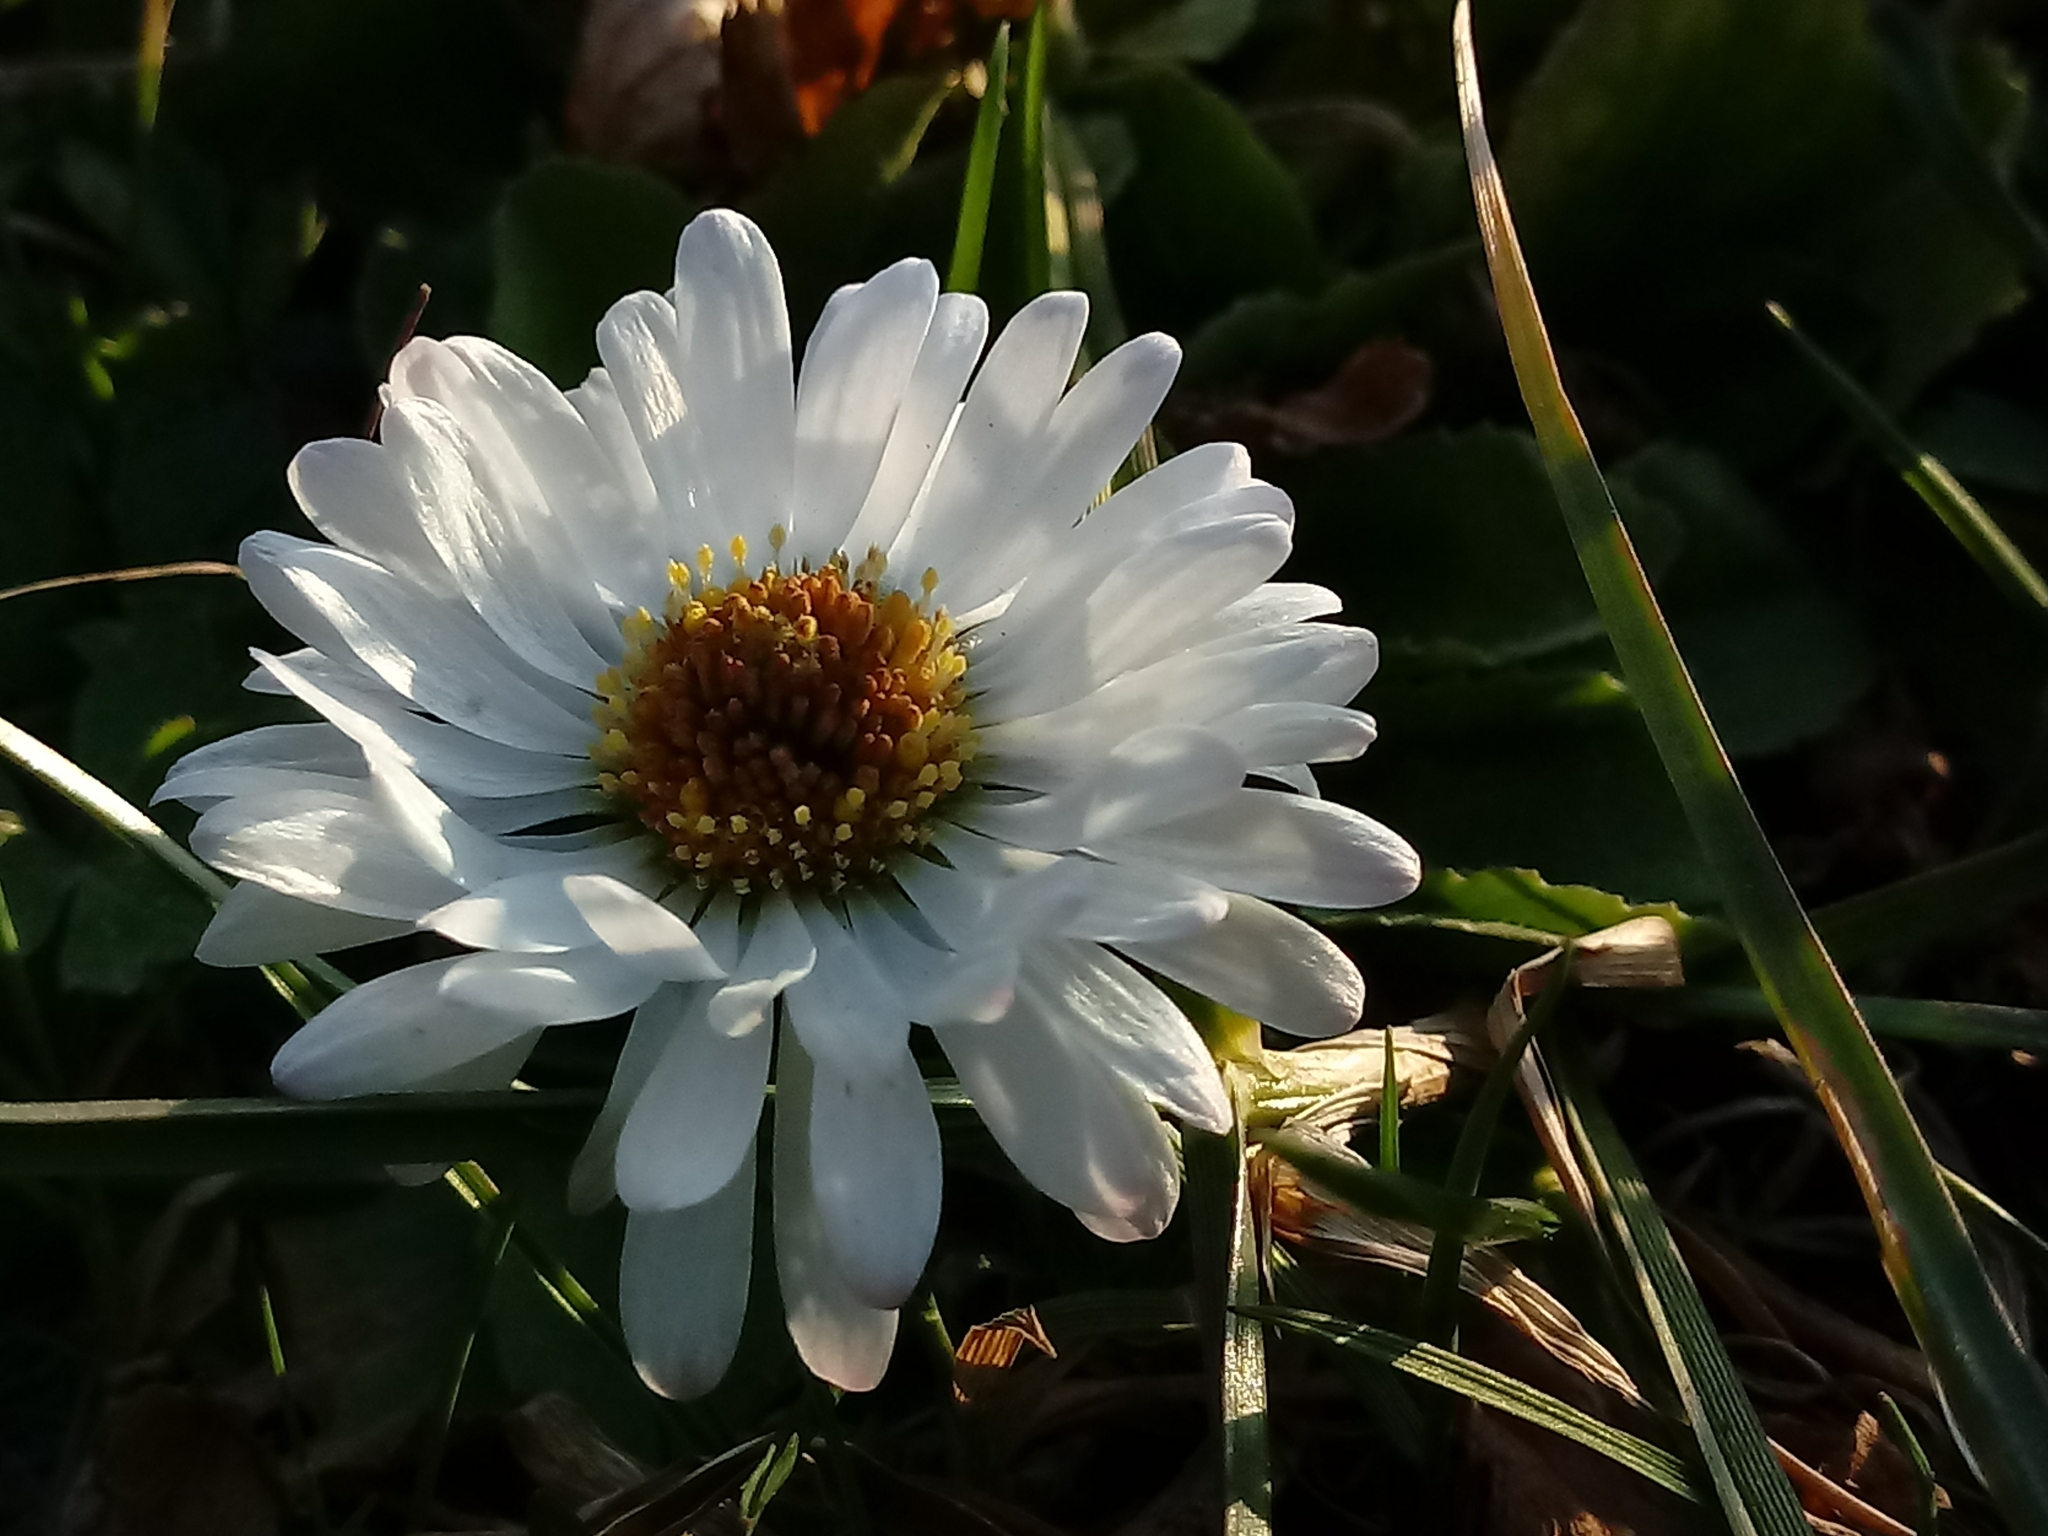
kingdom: Plantae
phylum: Tracheophyta
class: Magnoliopsida
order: Asterales
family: Asteraceae
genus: Bellis
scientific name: Bellis perennis
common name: Lawndaisy
